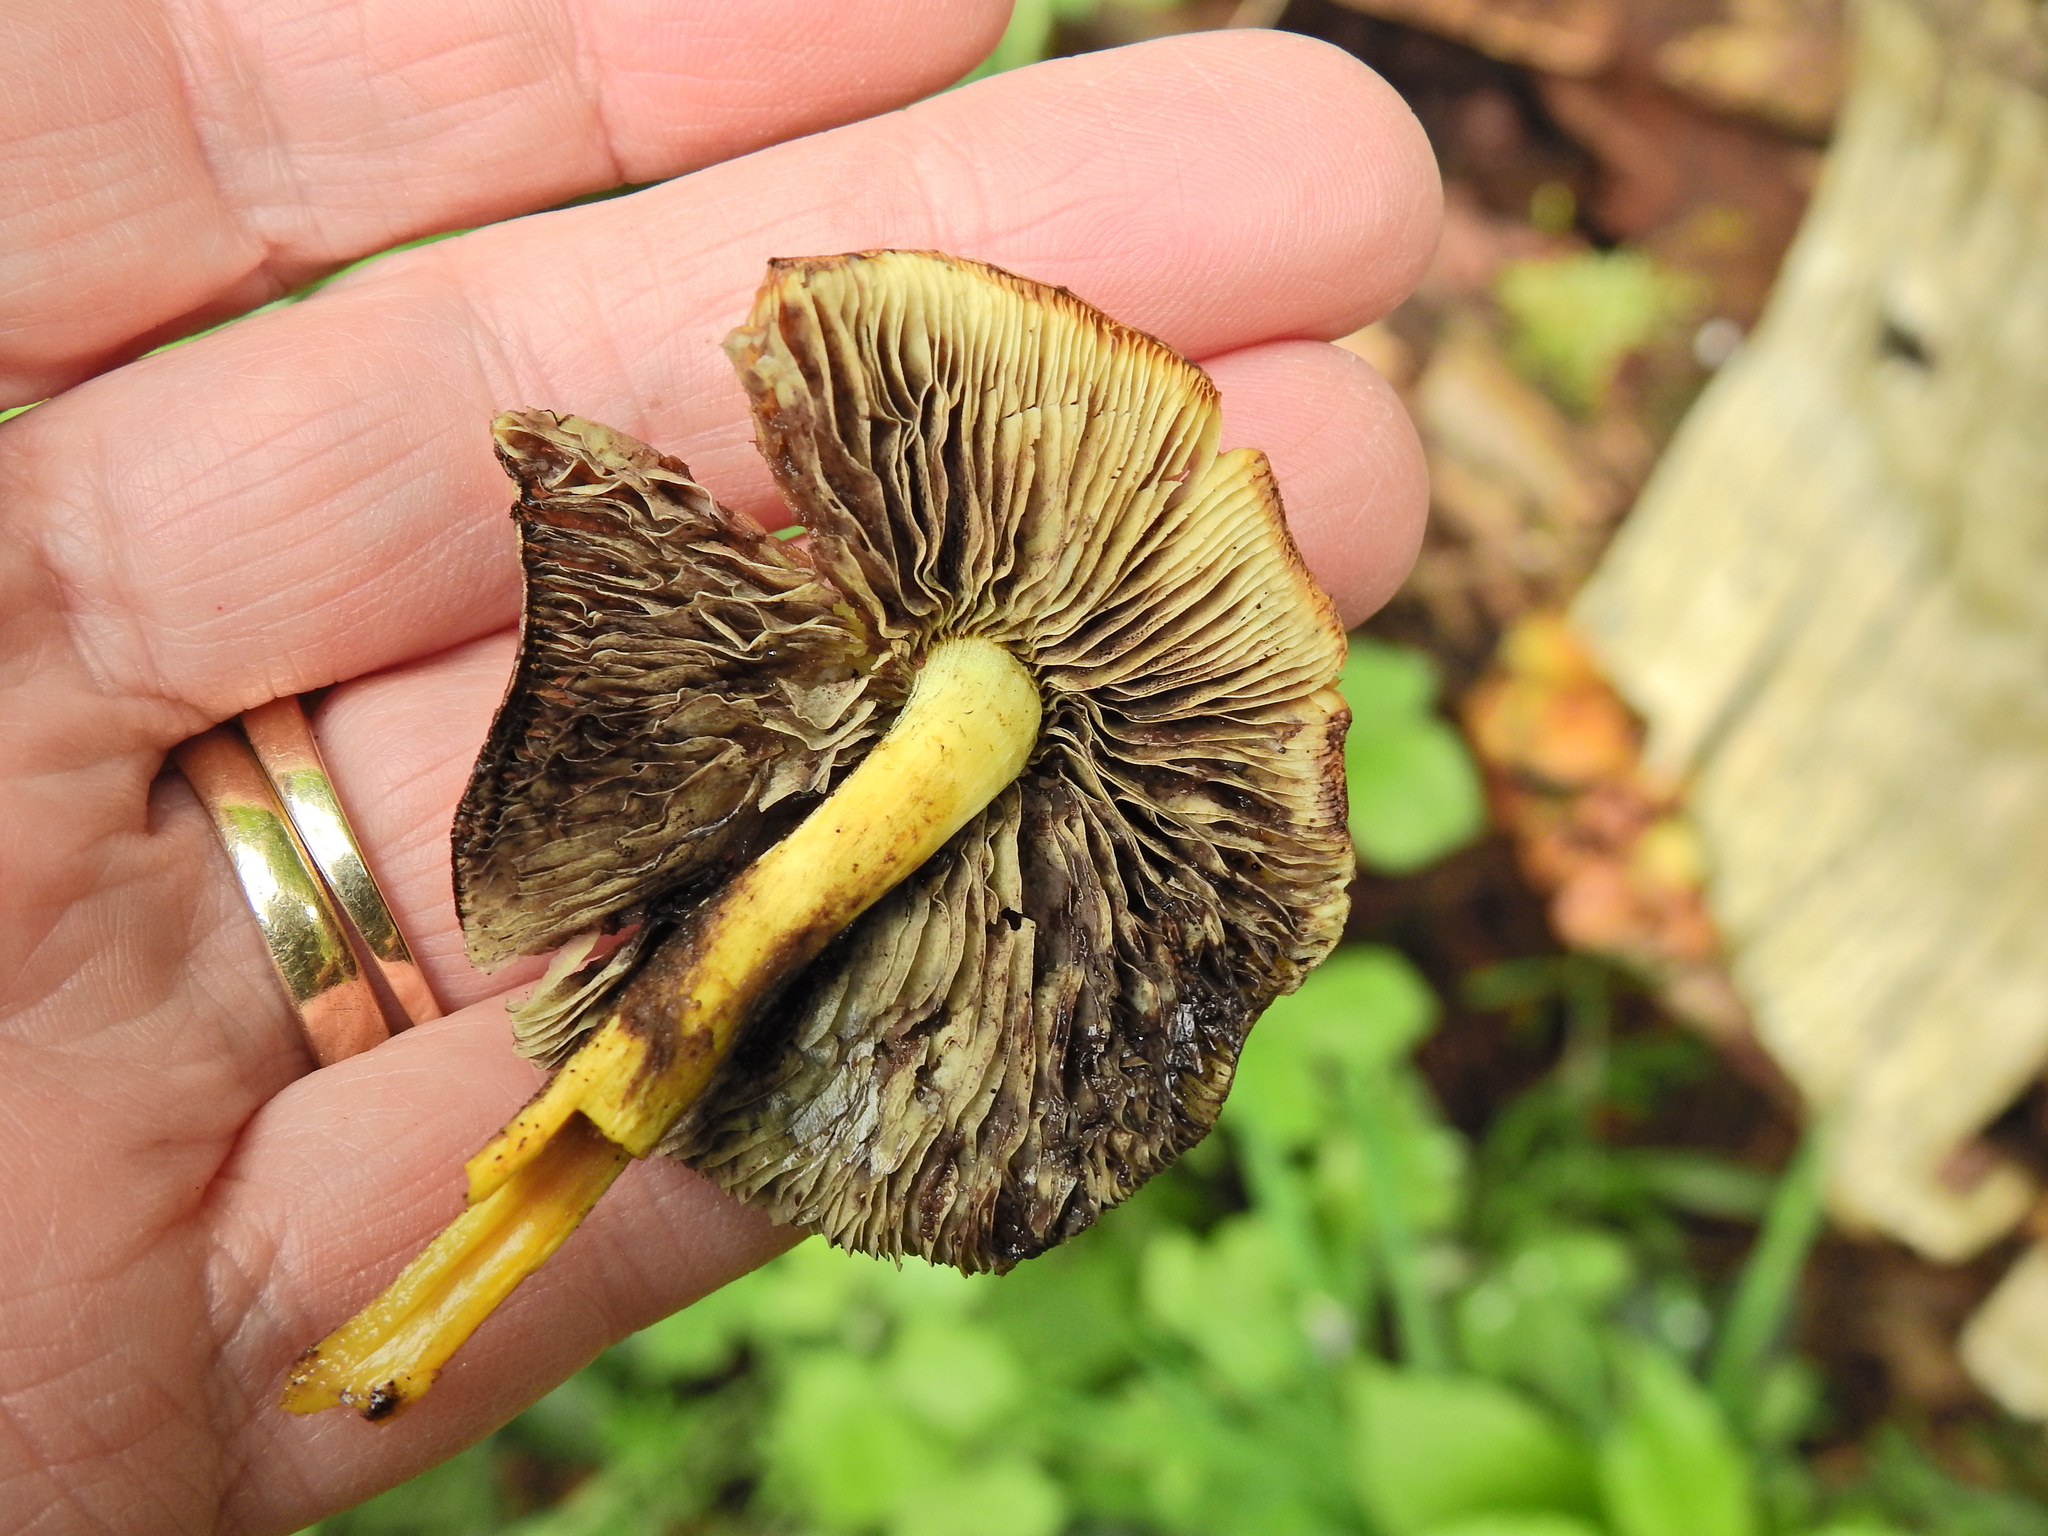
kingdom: Fungi
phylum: Basidiomycota
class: Agaricomycetes
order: Agaricales
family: Strophariaceae
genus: Hypholoma
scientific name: Hypholoma fasciculare
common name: Sulphur tuft
